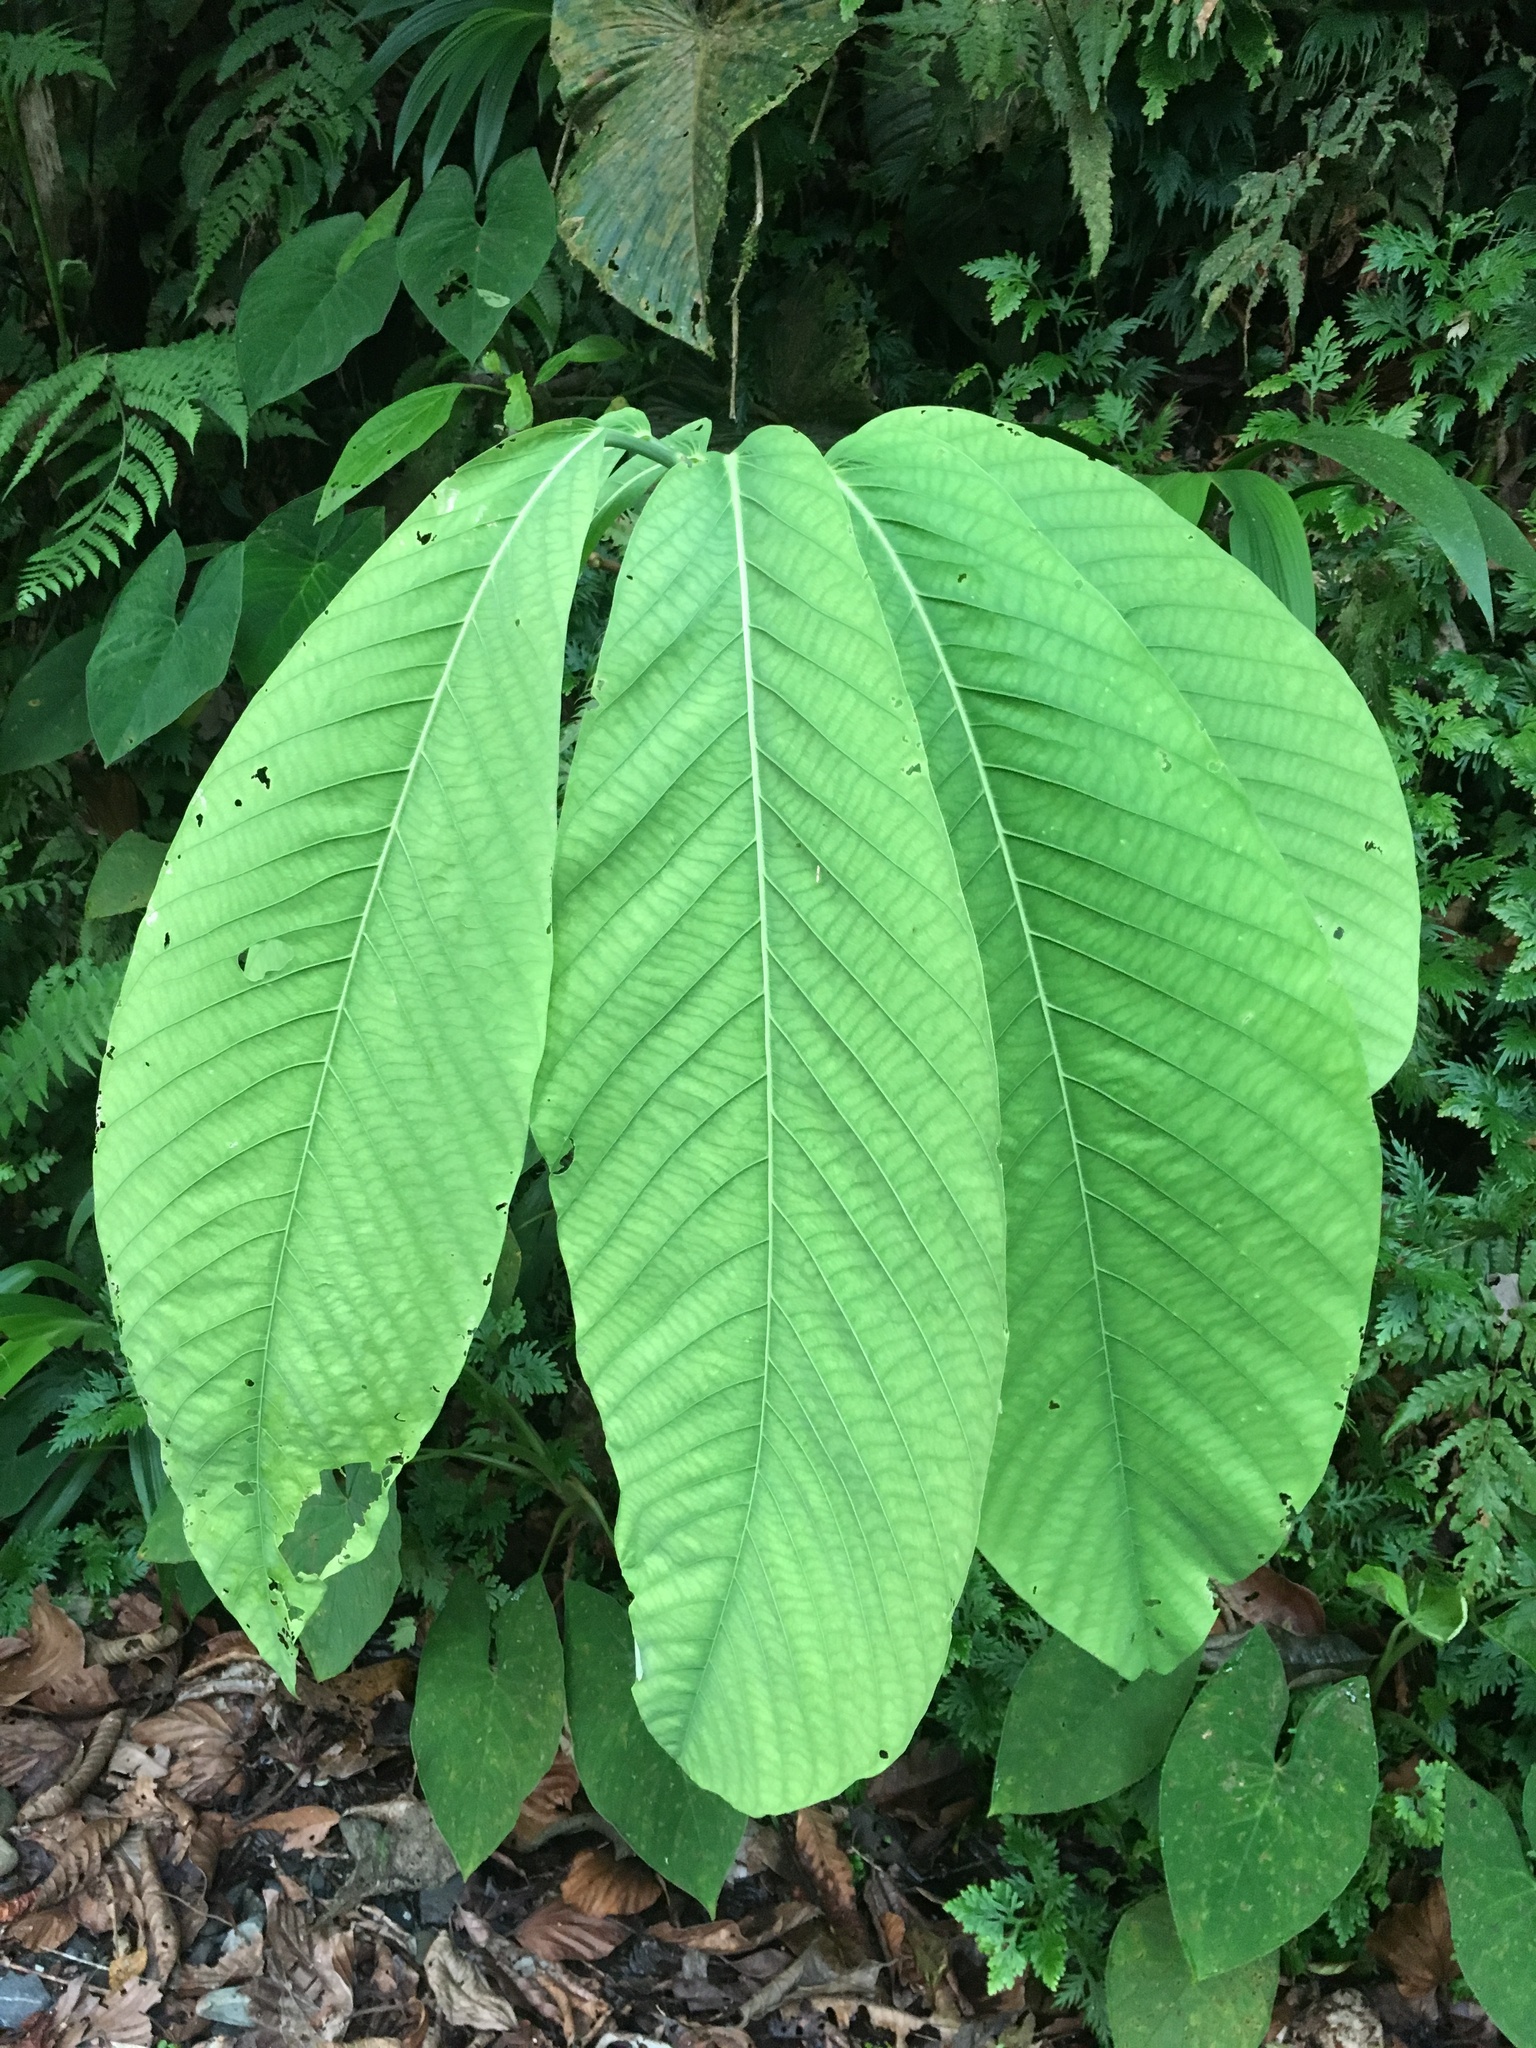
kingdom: Plantae
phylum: Tracheophyta
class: Magnoliopsida
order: Malpighiales
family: Passifloraceae
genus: Passiflora
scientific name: Passiflora macrophylla
